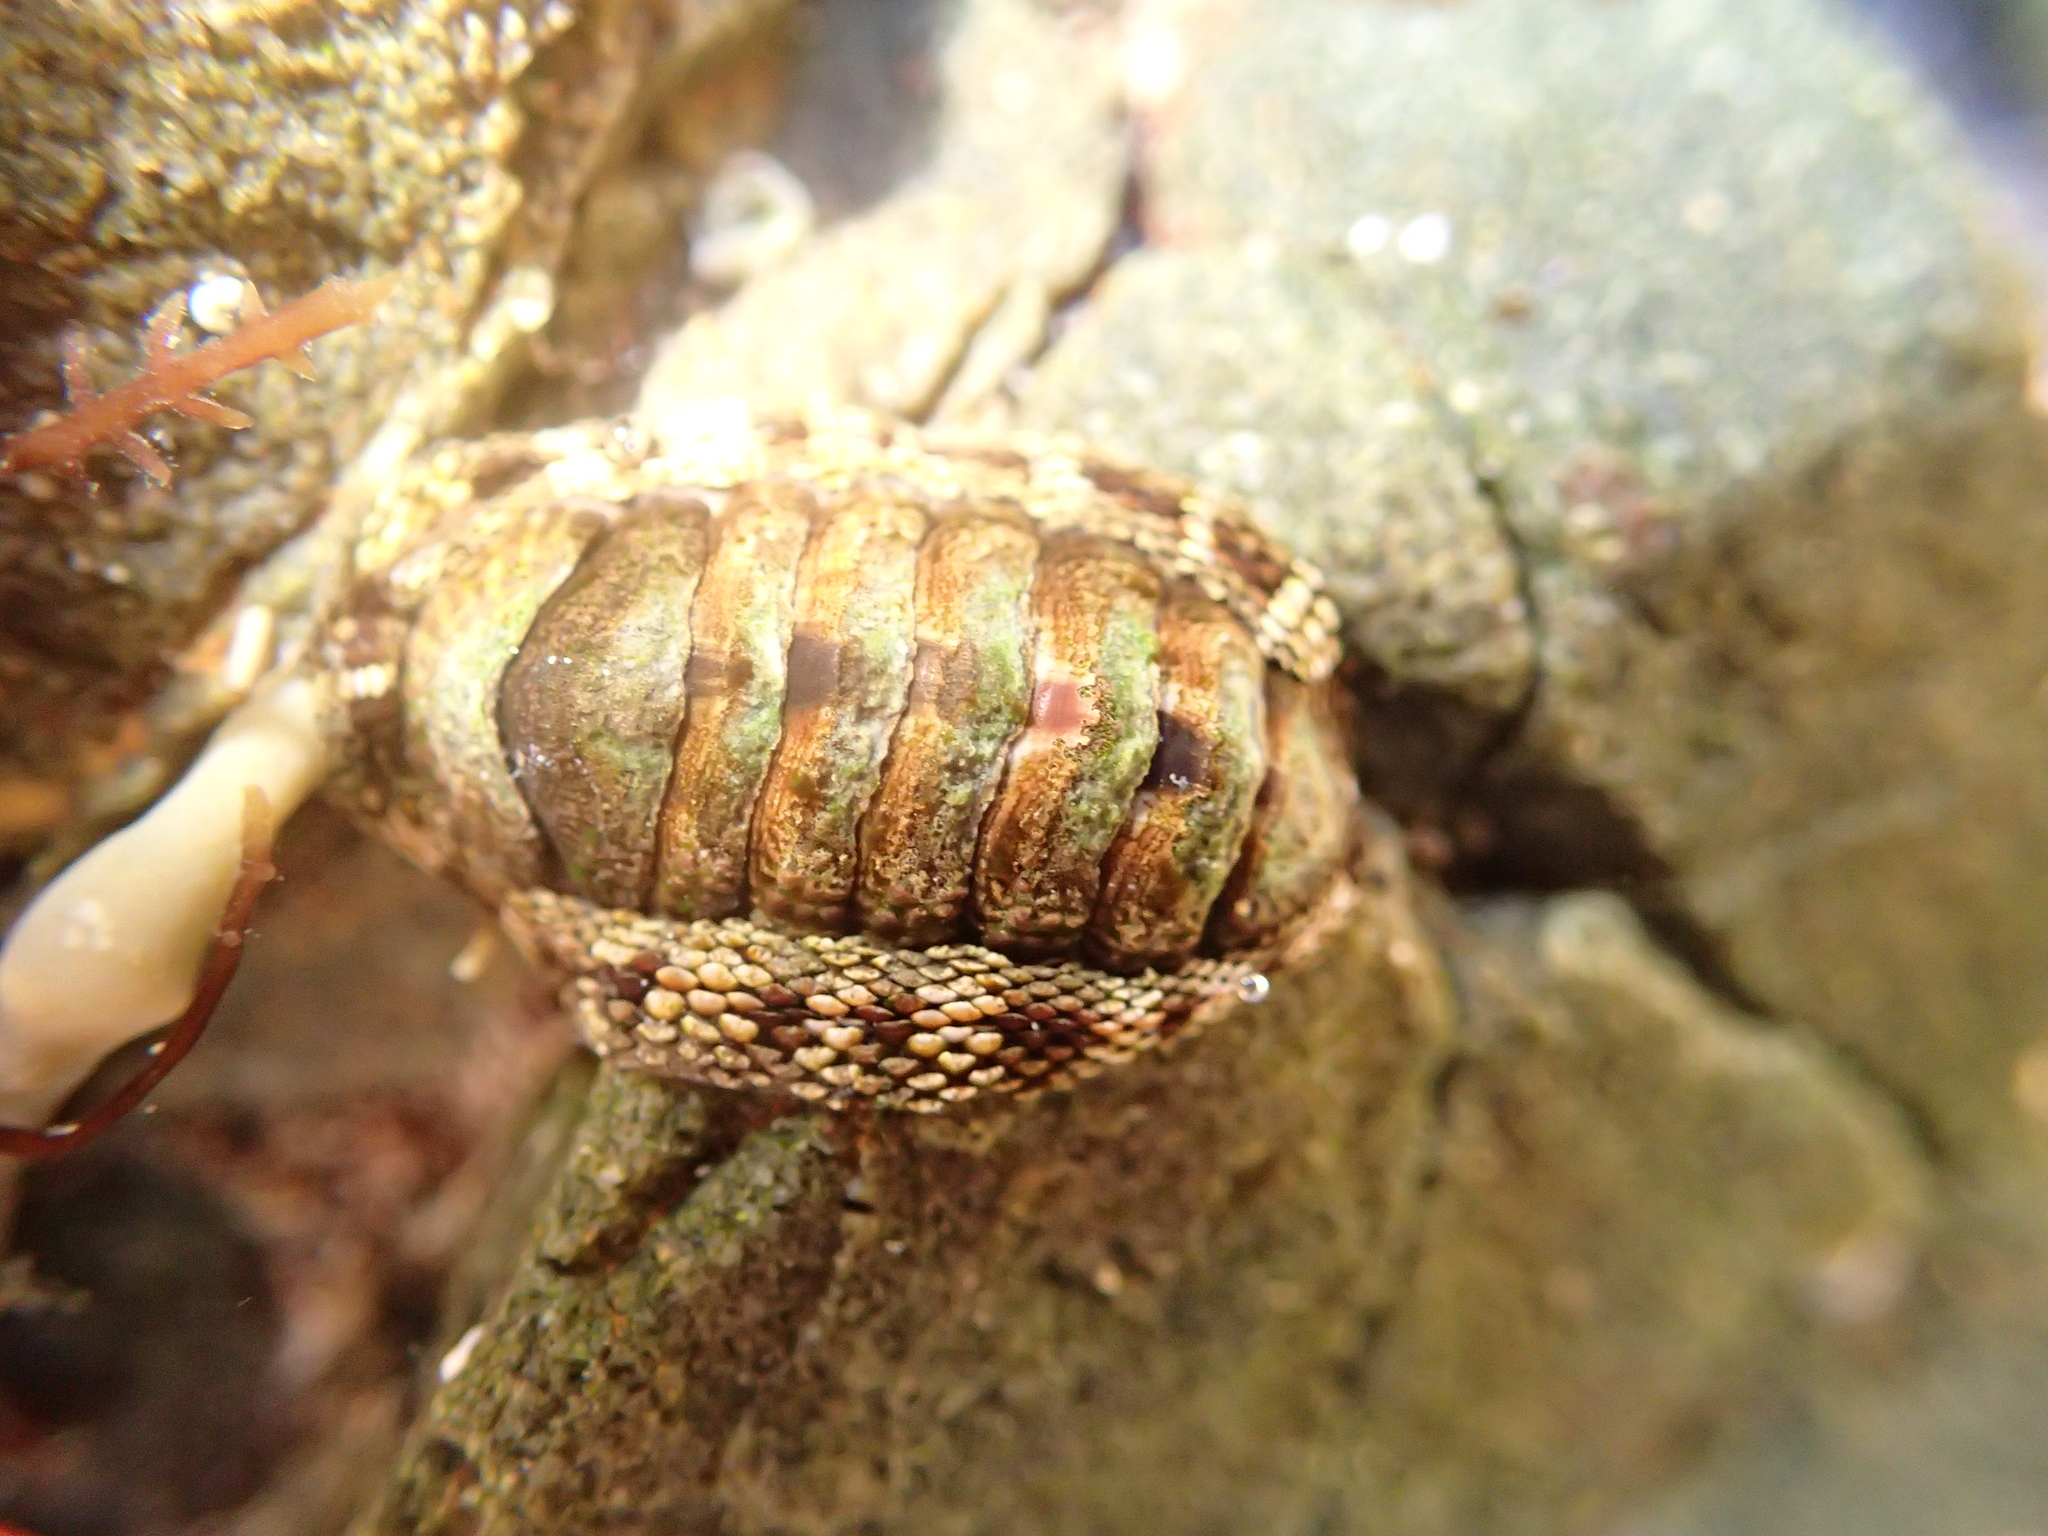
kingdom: Animalia
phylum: Mollusca
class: Polyplacophora
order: Chitonida
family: Chitonidae
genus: Sypharochiton
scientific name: Sypharochiton pelliserpentis
